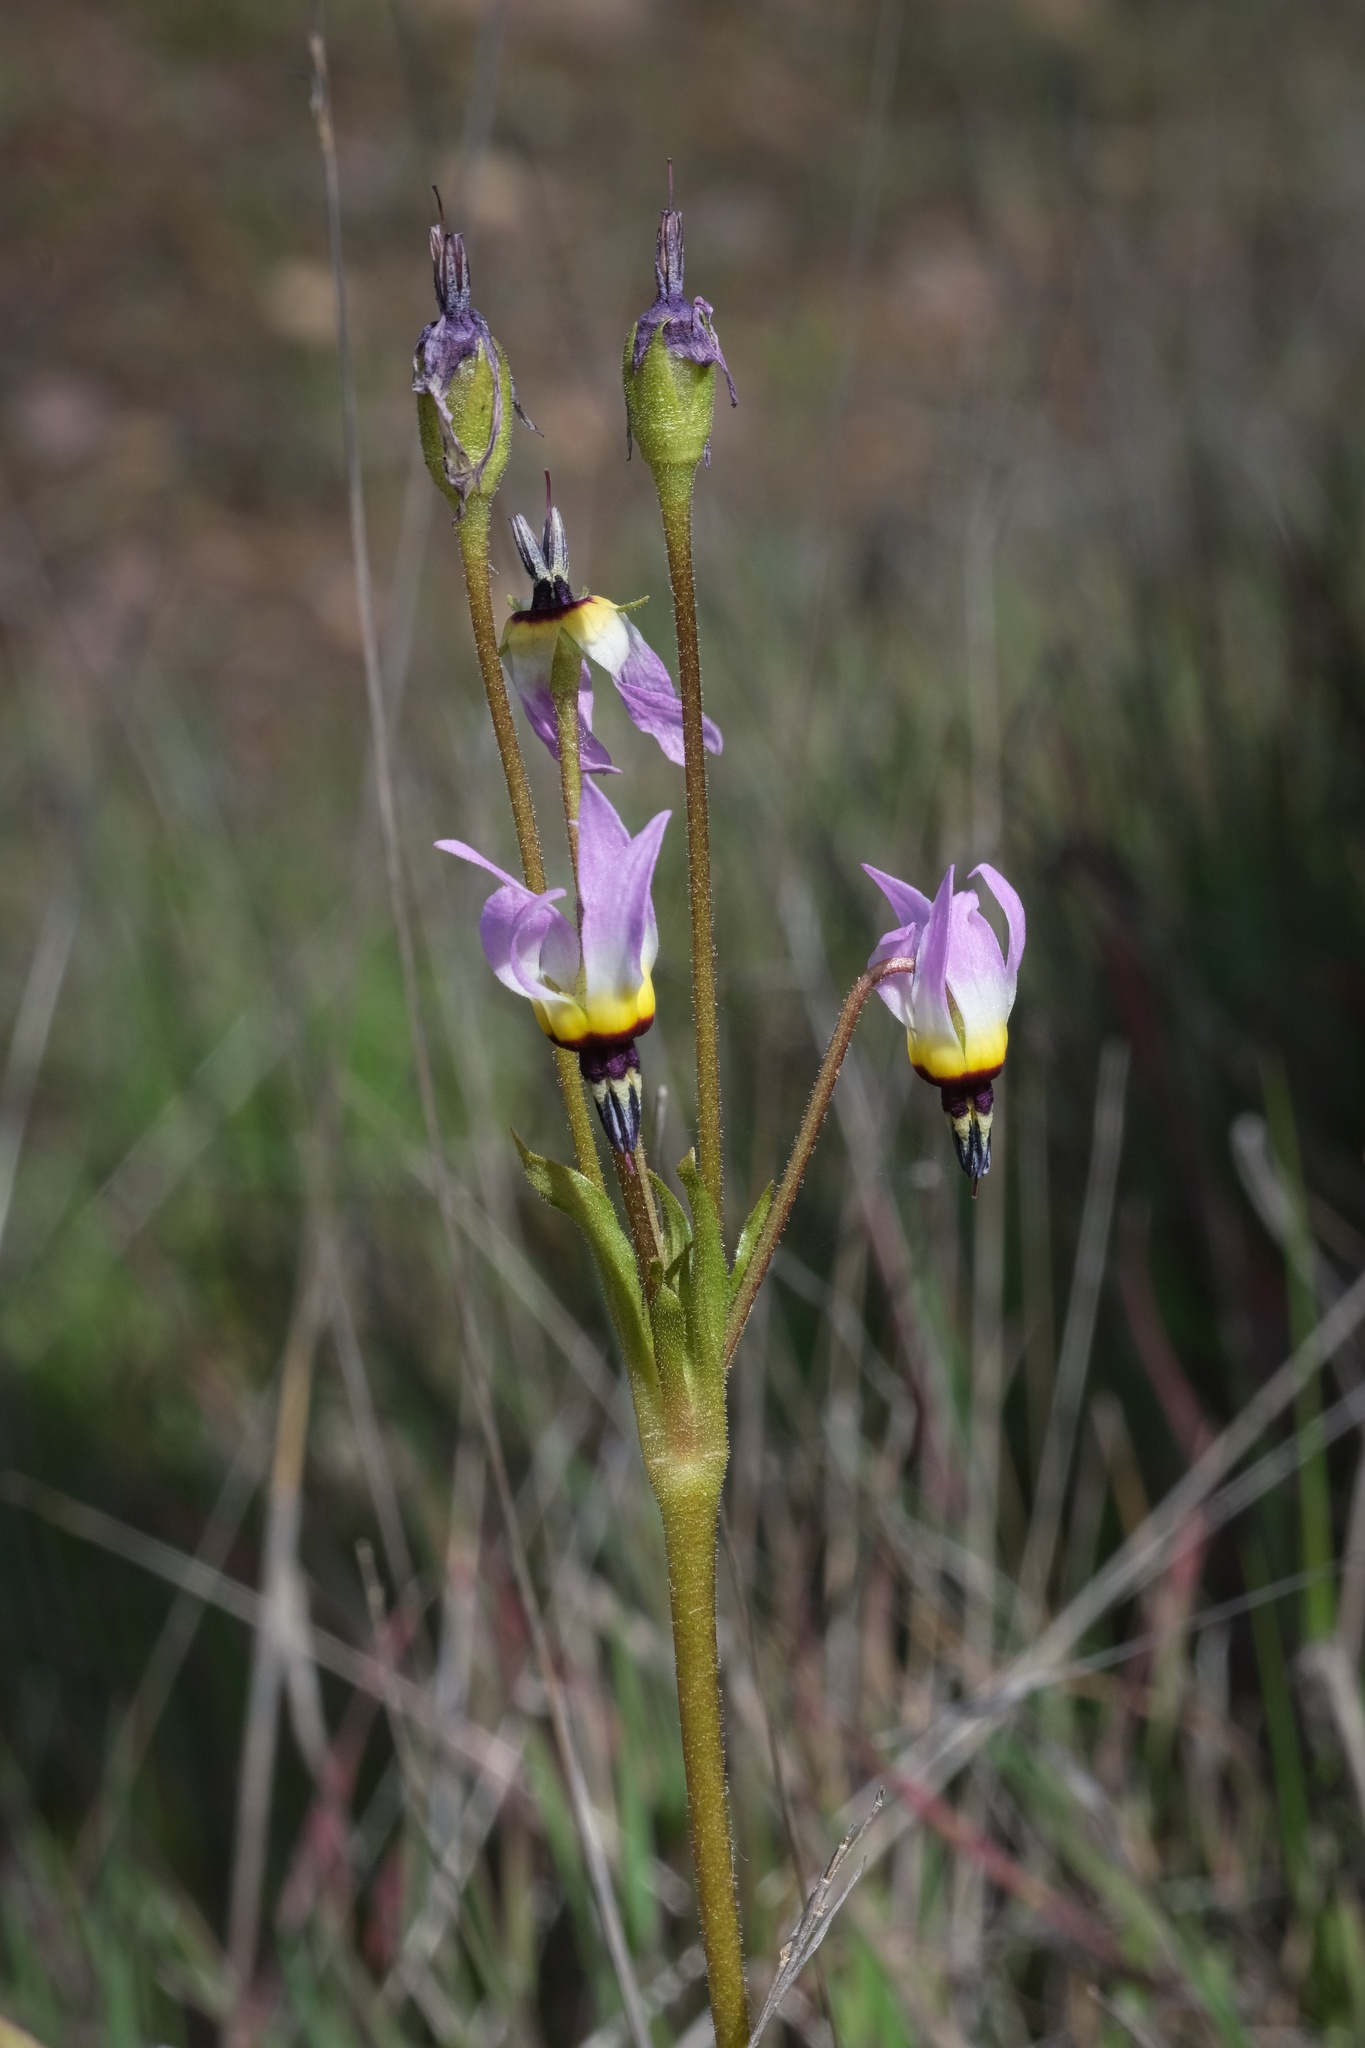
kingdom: Plantae
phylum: Tracheophyta
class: Magnoliopsida
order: Ericales
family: Primulaceae
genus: Dodecatheon
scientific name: Dodecatheon clevelandii
